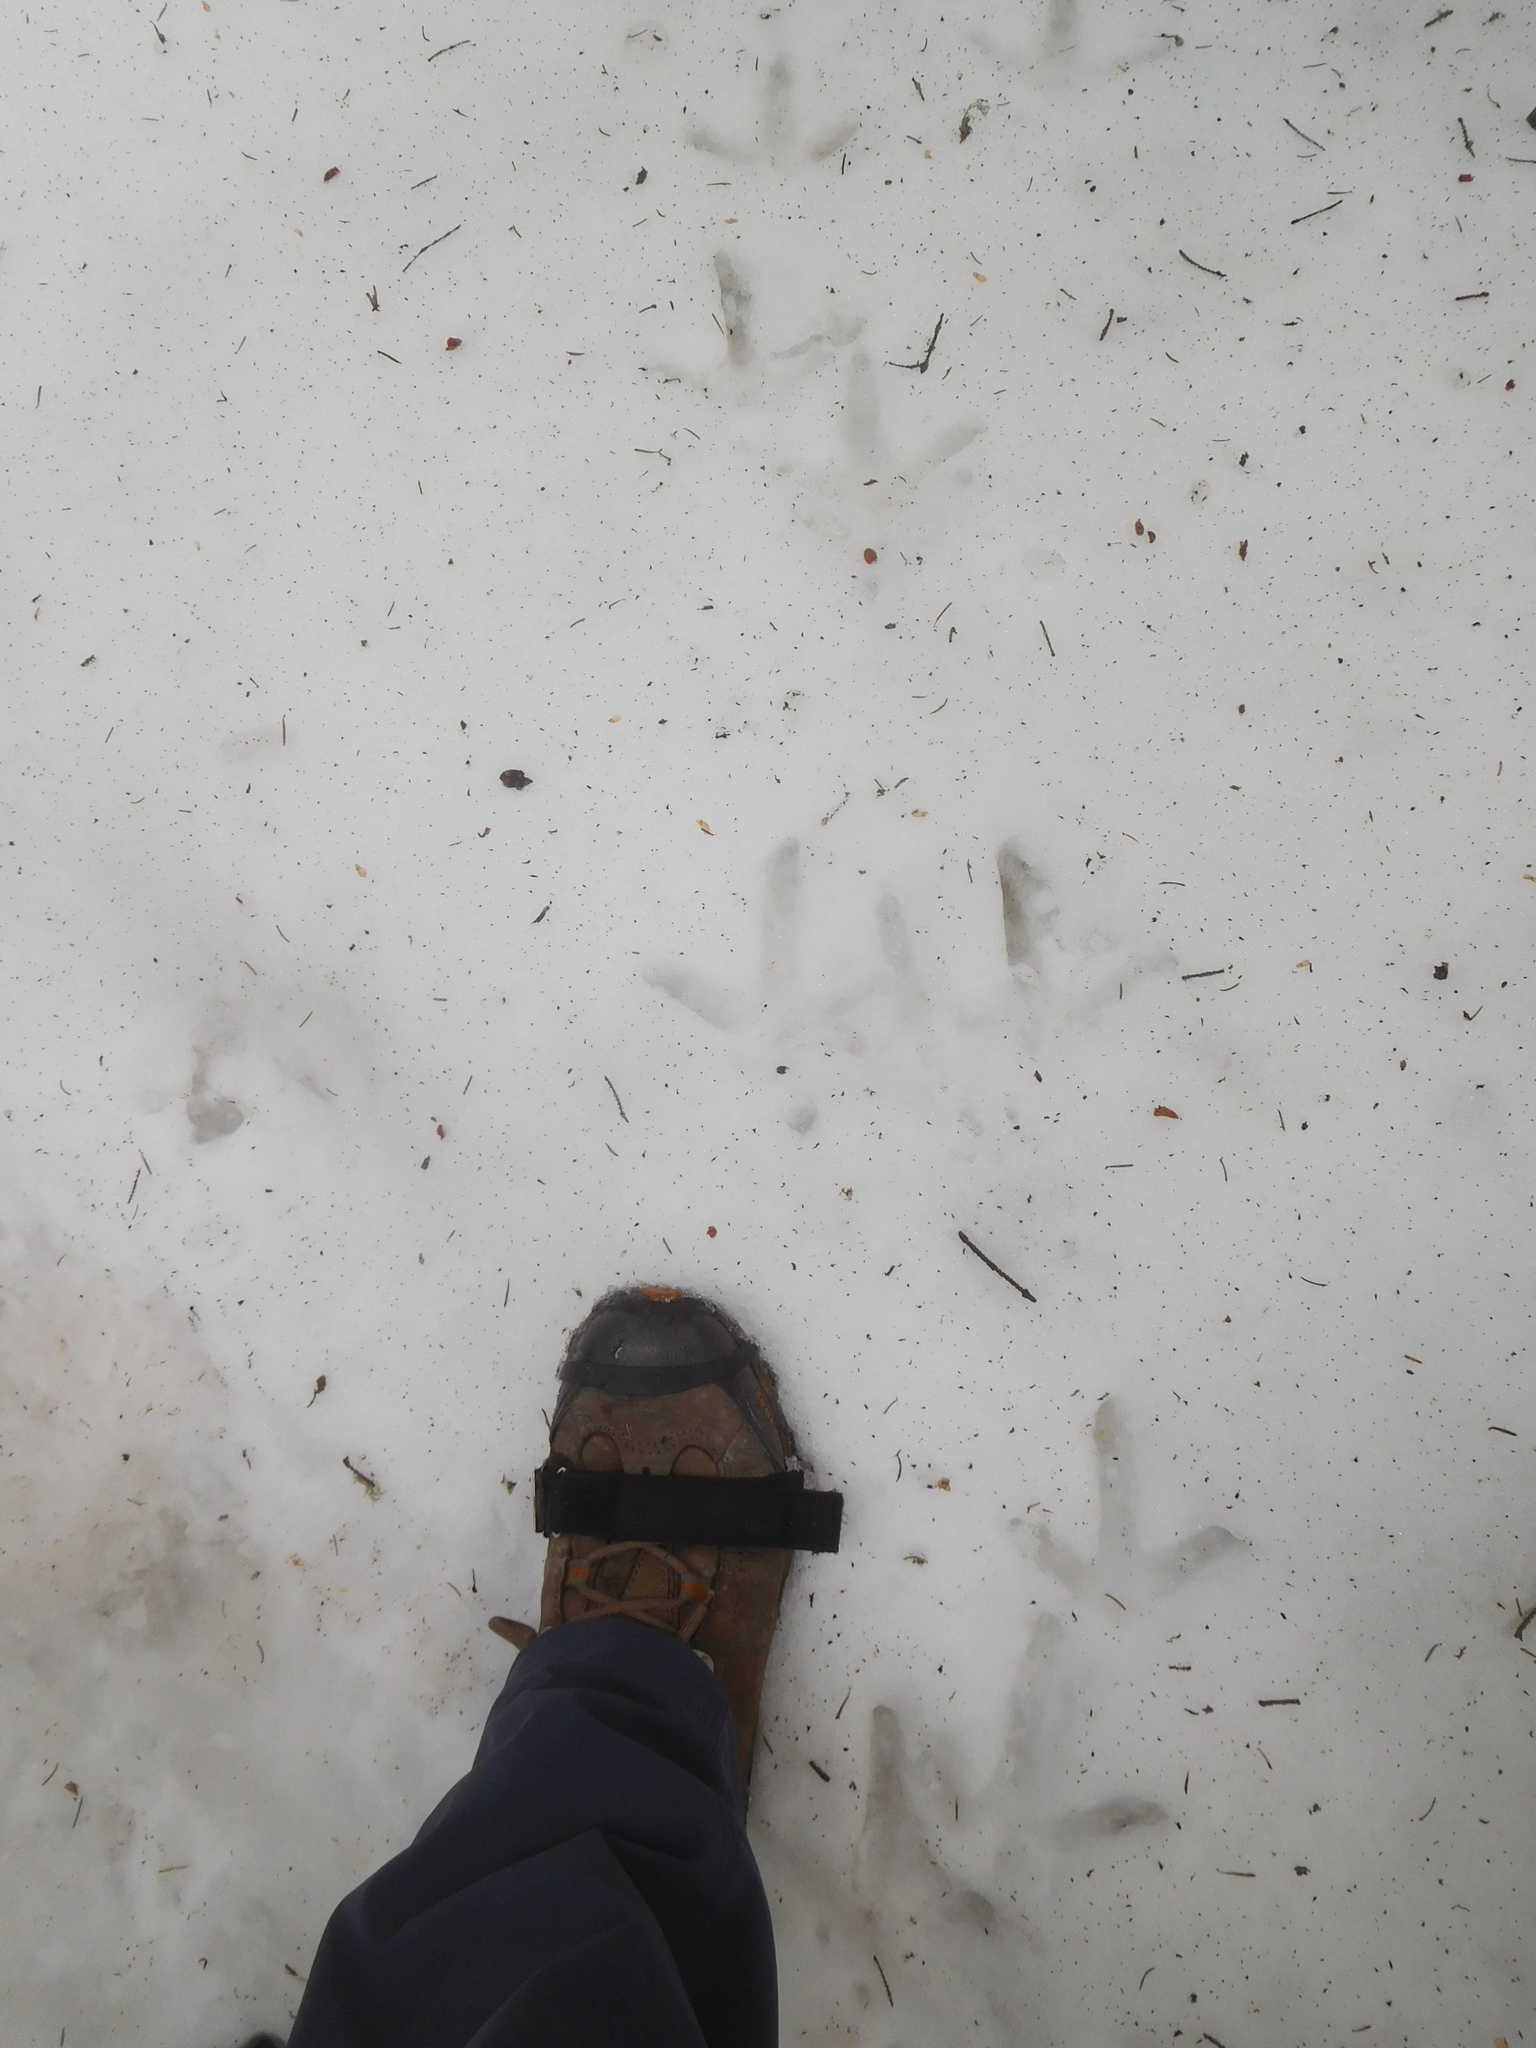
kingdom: Animalia
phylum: Chordata
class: Aves
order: Galliformes
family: Phasianidae
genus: Meleagris
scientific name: Meleagris gallopavo
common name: Wild turkey
